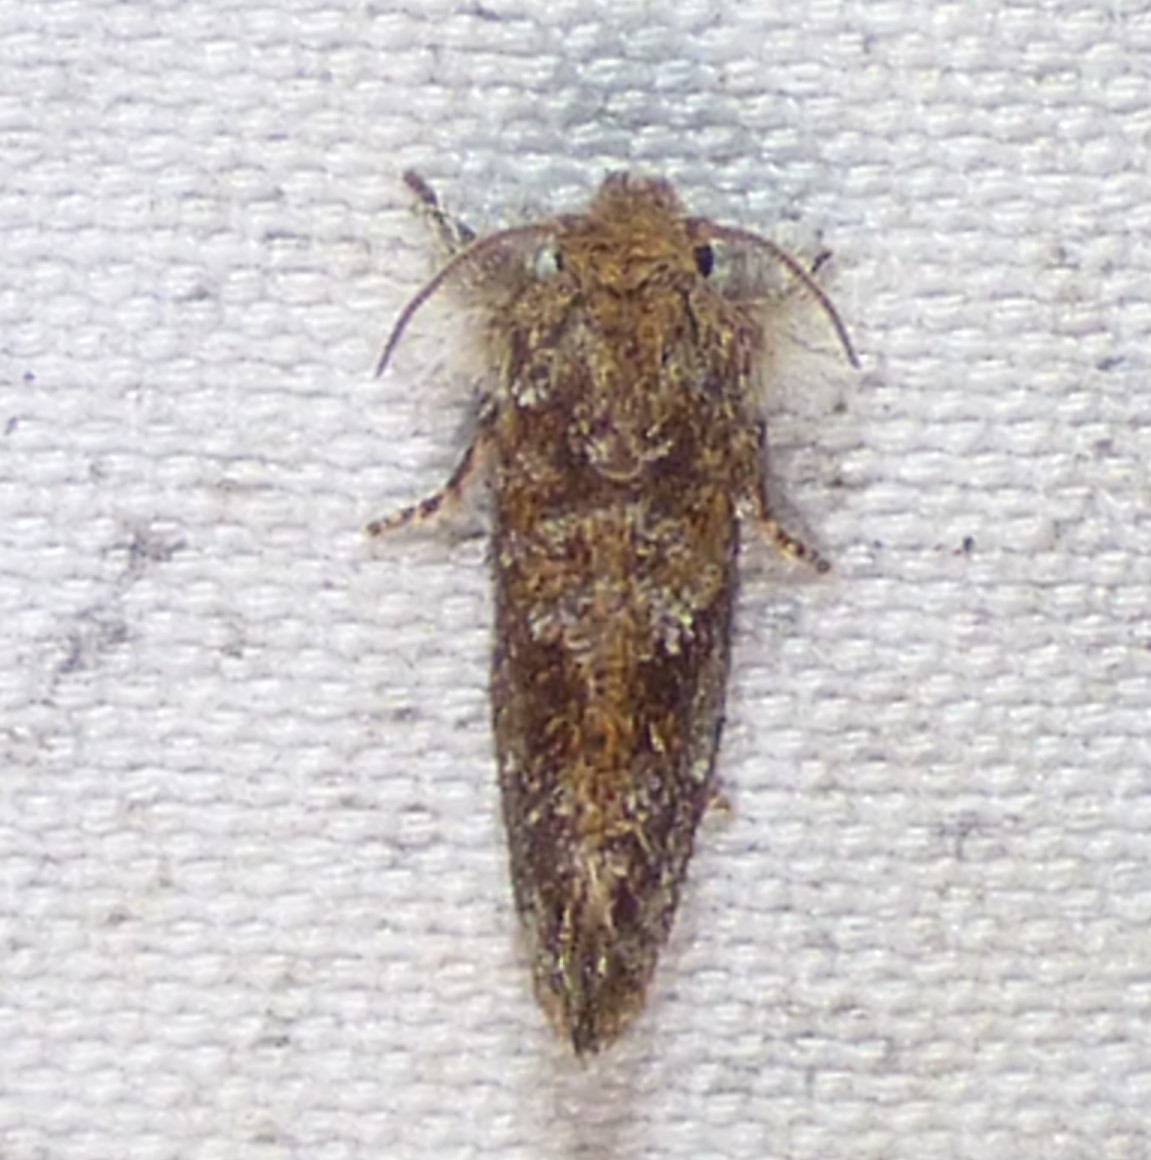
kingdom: Animalia
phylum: Arthropoda
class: Insecta
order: Lepidoptera
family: Tineidae
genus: Acrolophus
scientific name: Acrolophus panamae
